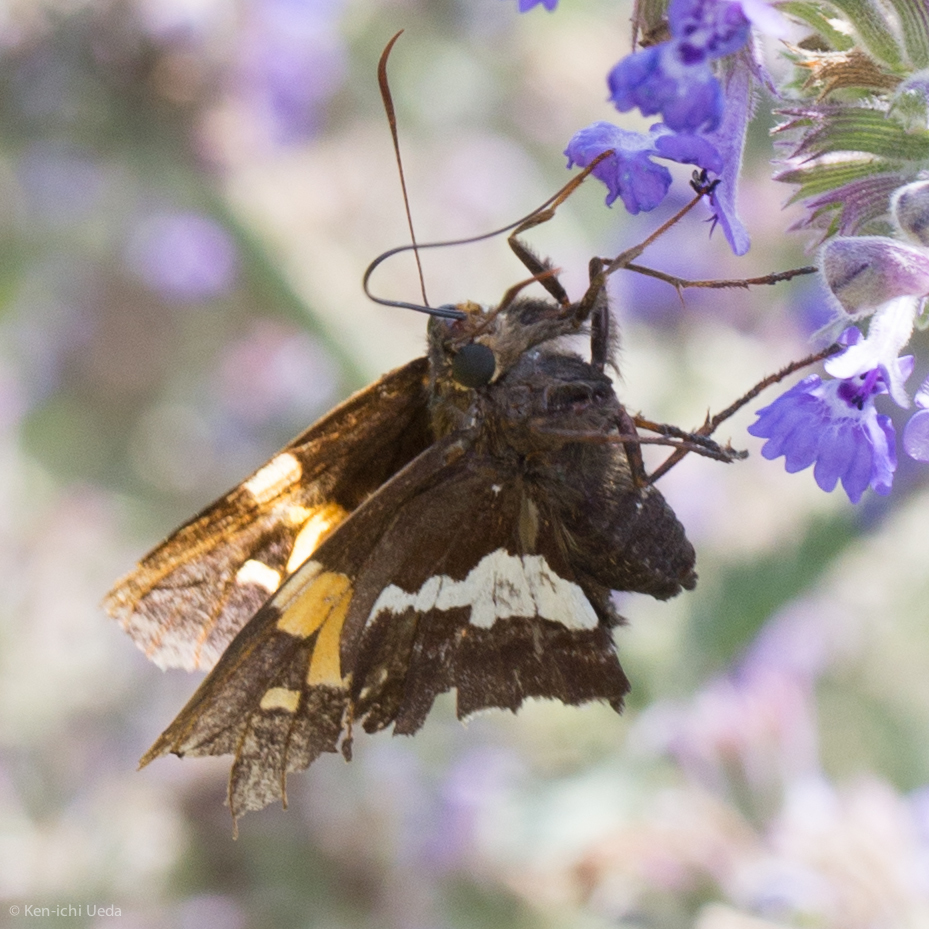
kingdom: Animalia
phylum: Arthropoda
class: Insecta
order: Lepidoptera
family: Hesperiidae
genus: Epargyreus
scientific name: Epargyreus clarus
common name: Silver-spotted skipper
